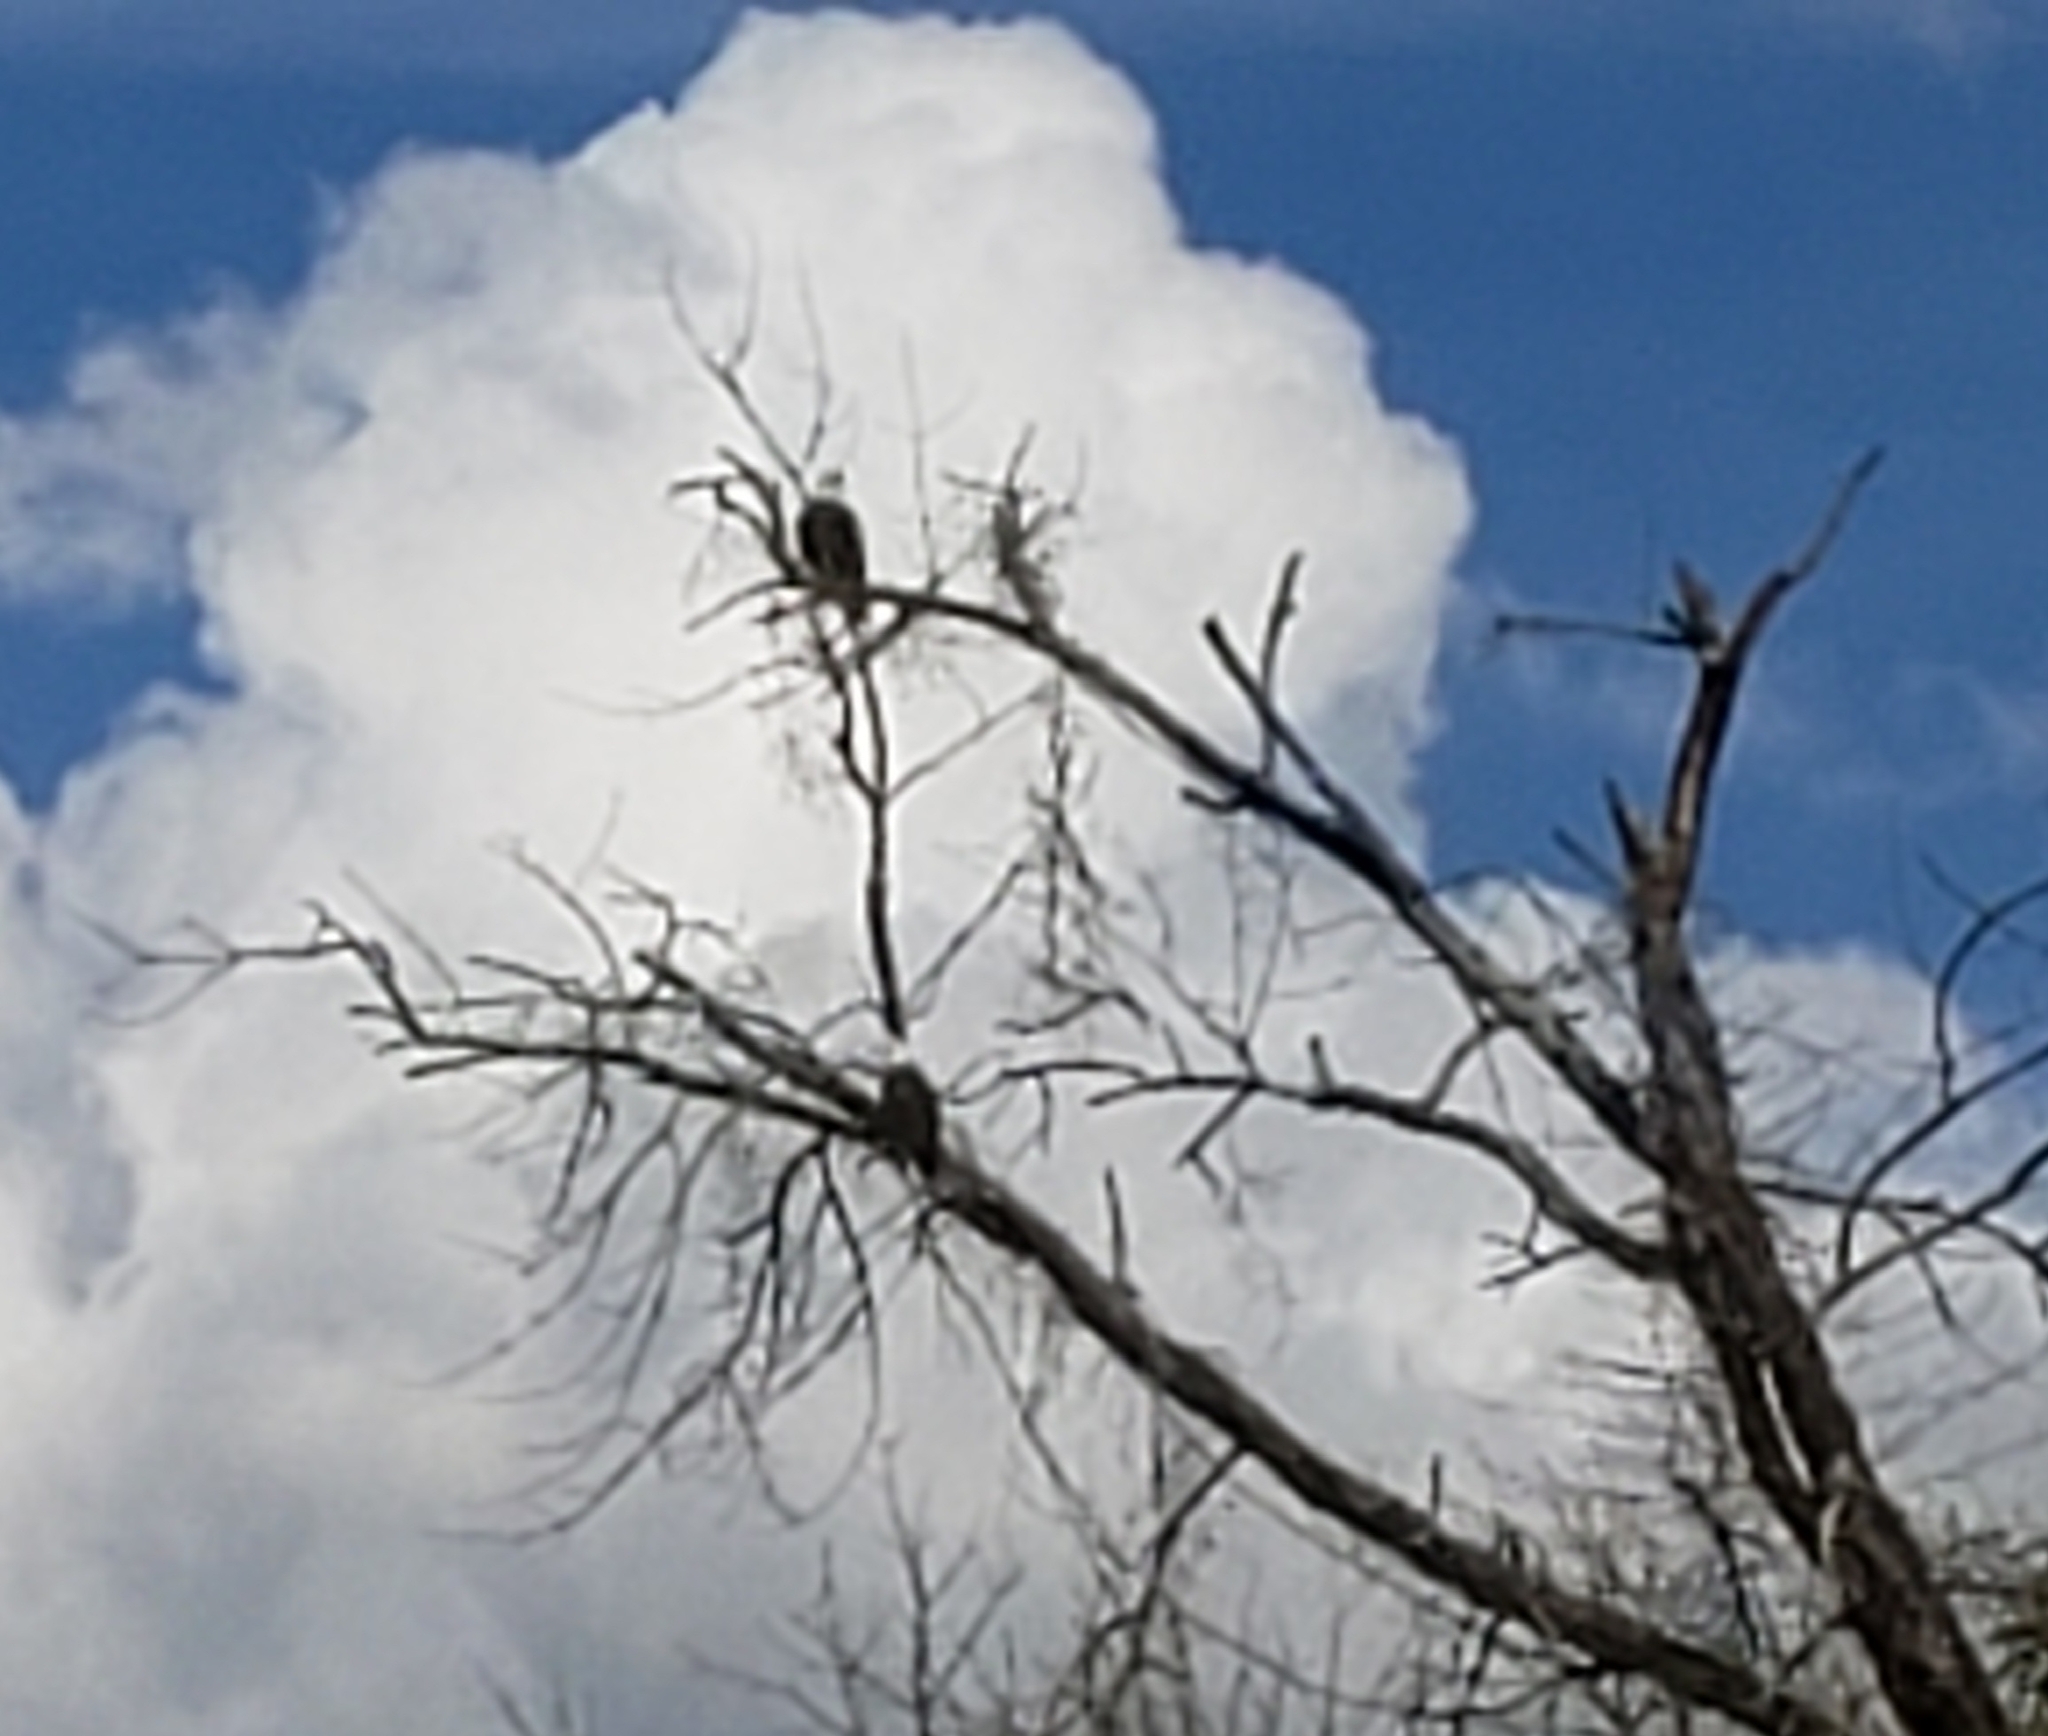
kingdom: Animalia
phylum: Chordata
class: Aves
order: Accipitriformes
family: Accipitridae
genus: Haliaeetus
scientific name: Haliaeetus leucocephalus
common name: Bald eagle
